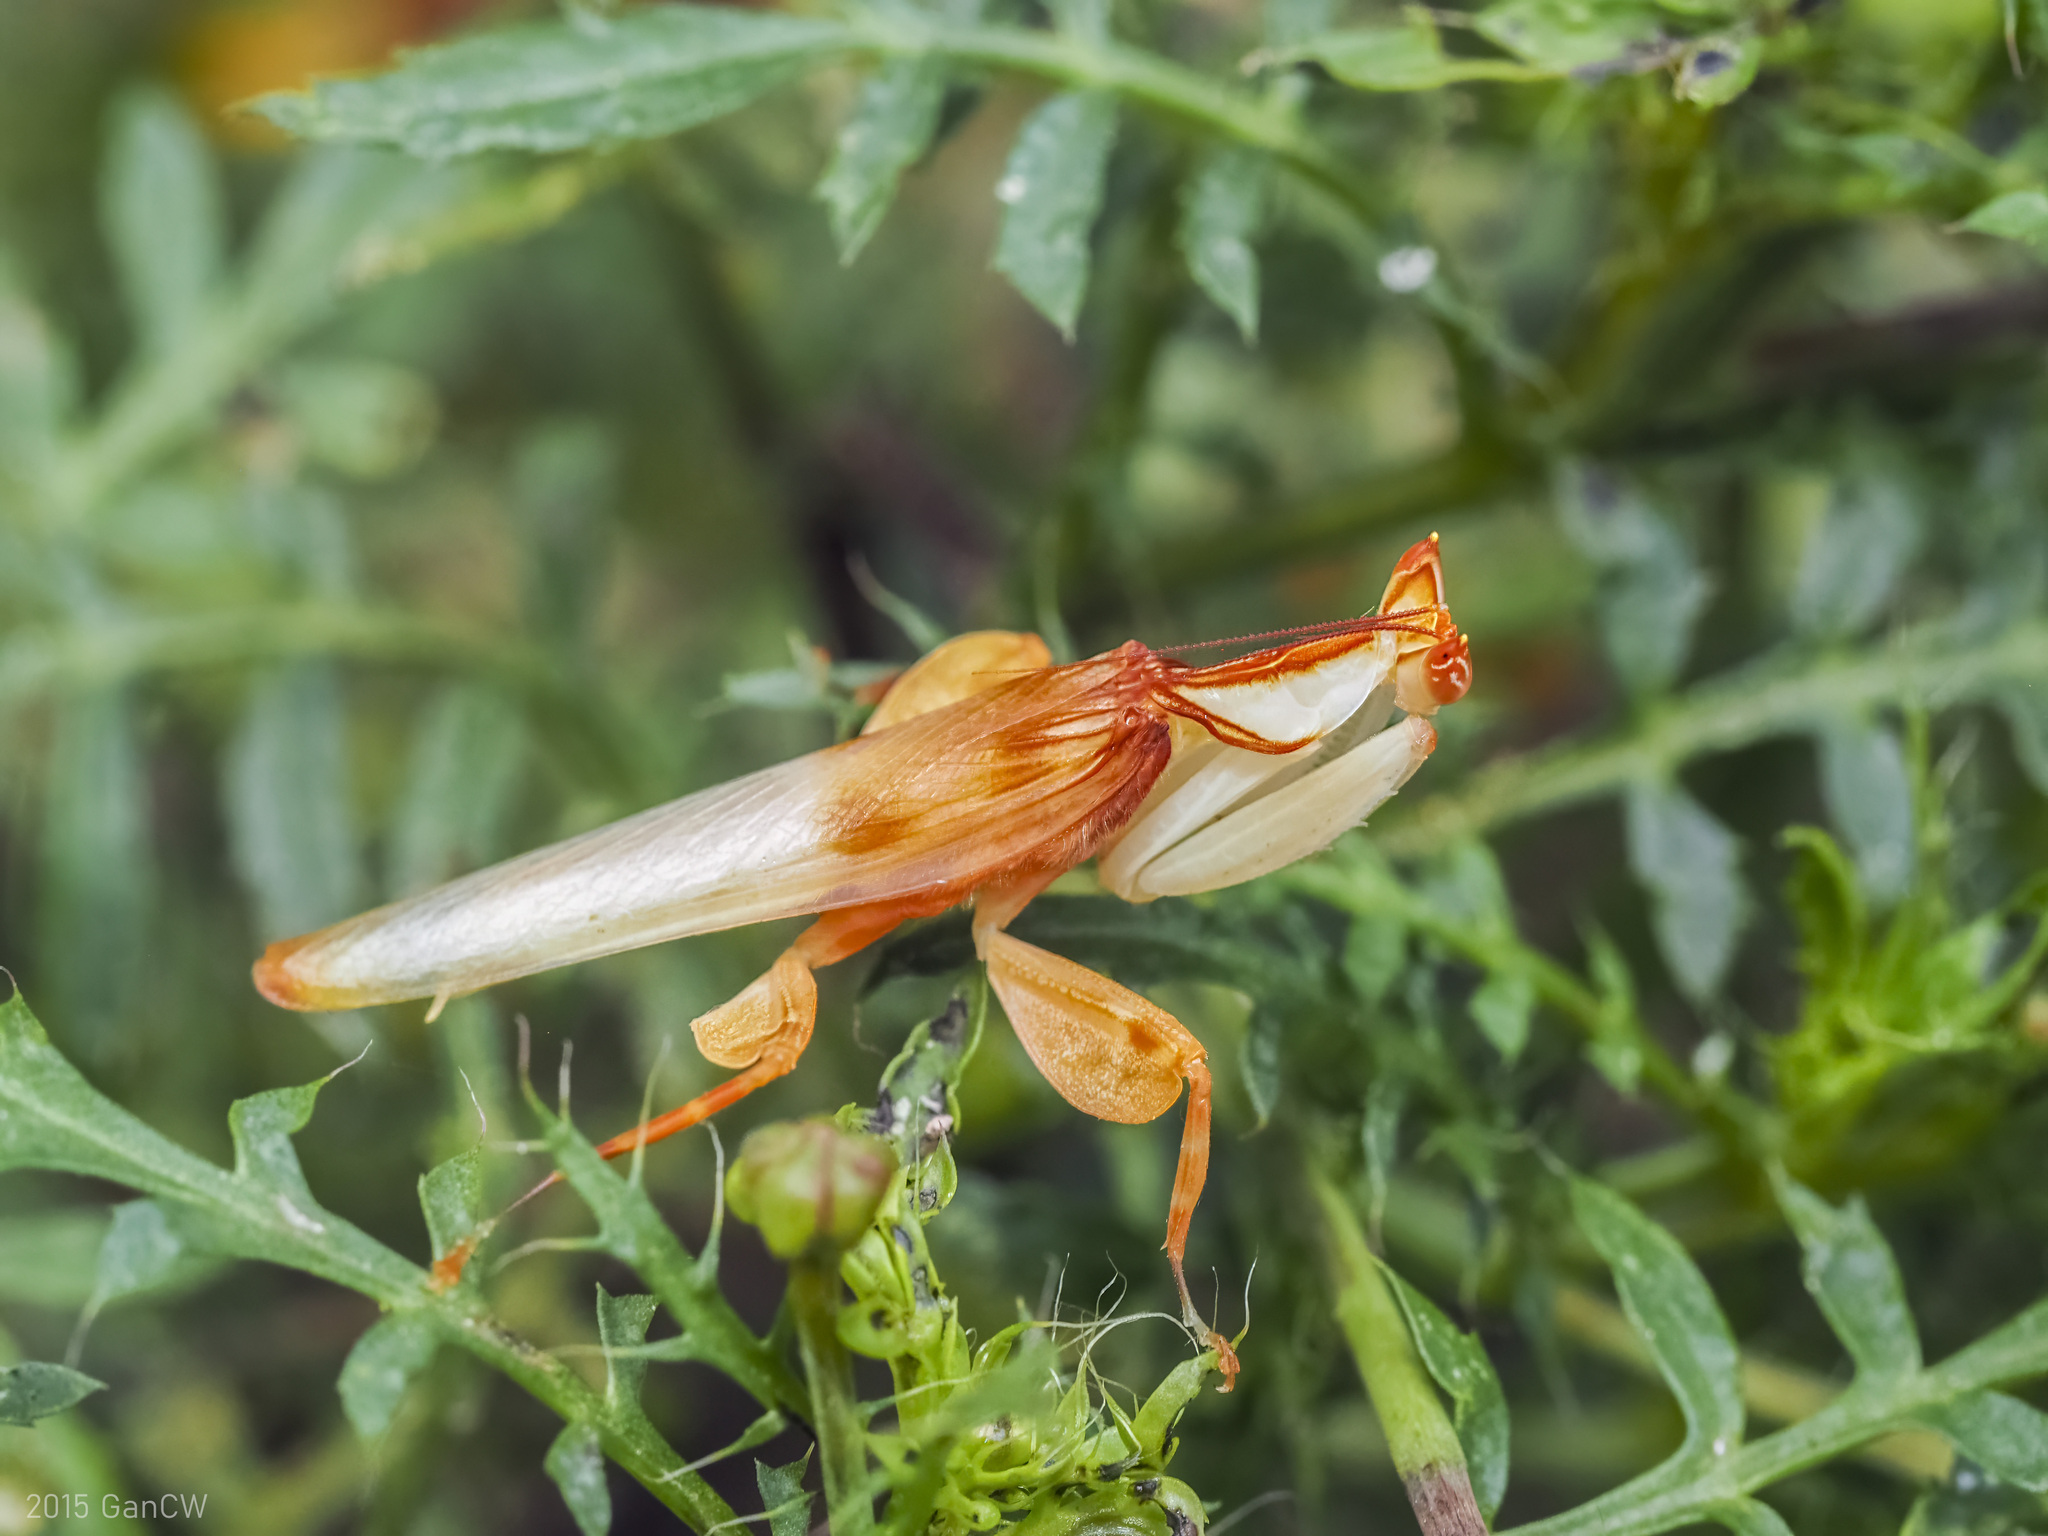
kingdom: Animalia
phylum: Arthropoda
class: Insecta
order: Mantodea
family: Hymenopodidae
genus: Hymenopus
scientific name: Hymenopus coronatus
